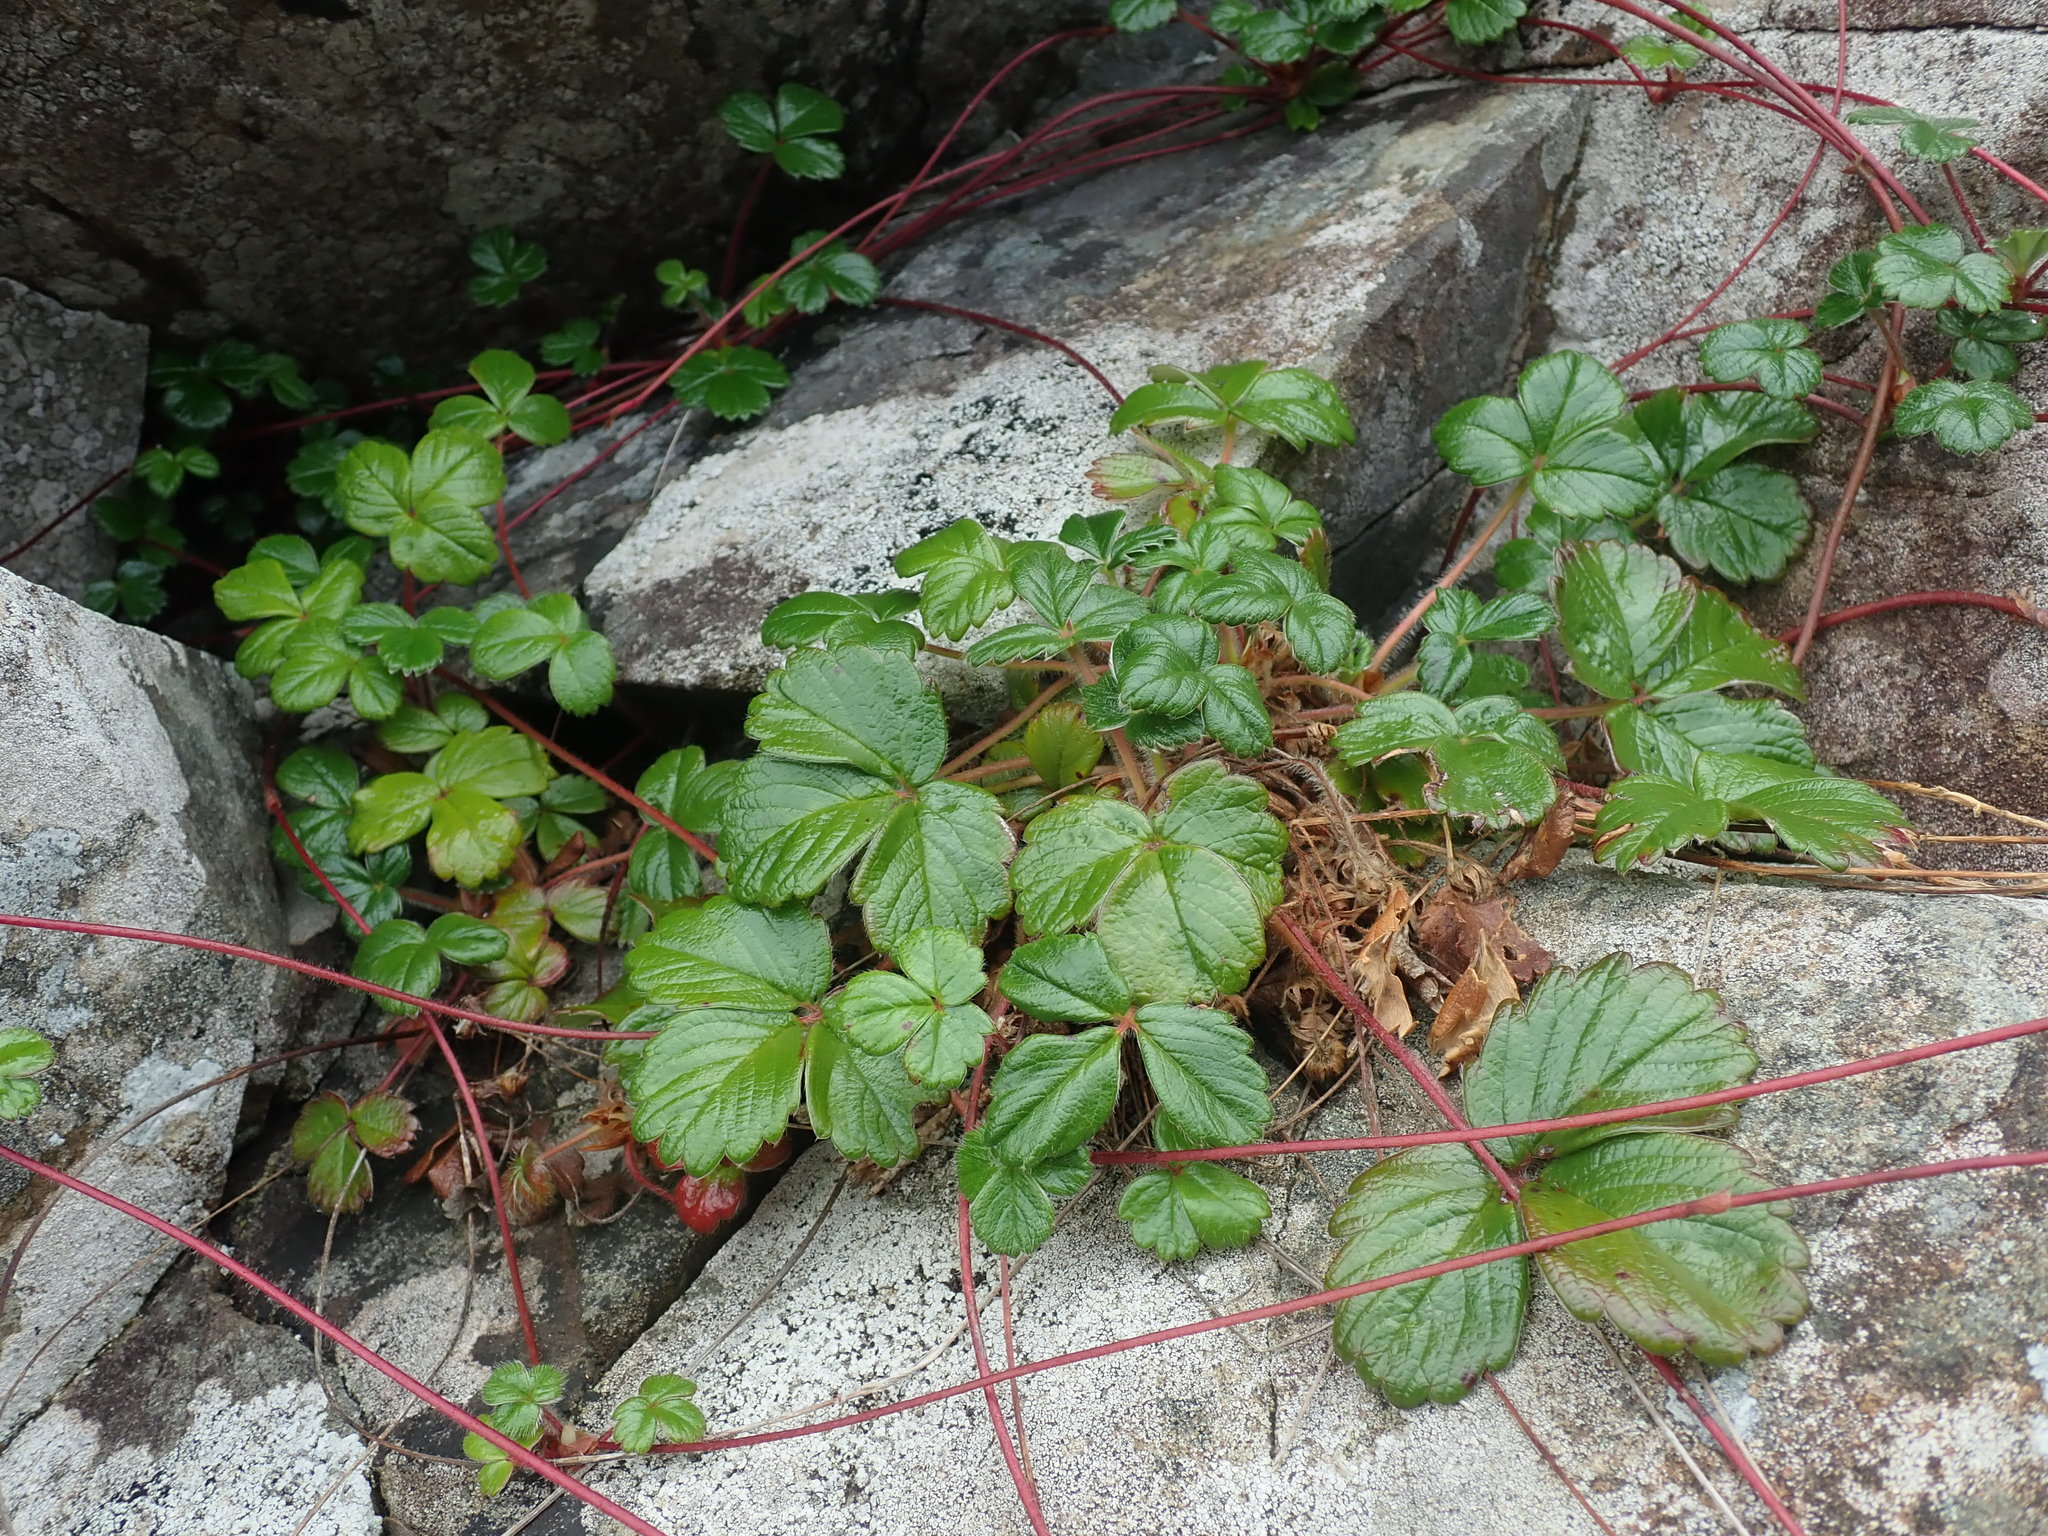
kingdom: Plantae
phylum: Tracheophyta
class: Magnoliopsida
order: Rosales
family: Rosaceae
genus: Fragaria
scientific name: Fragaria chiloensis
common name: Beach strawberry
